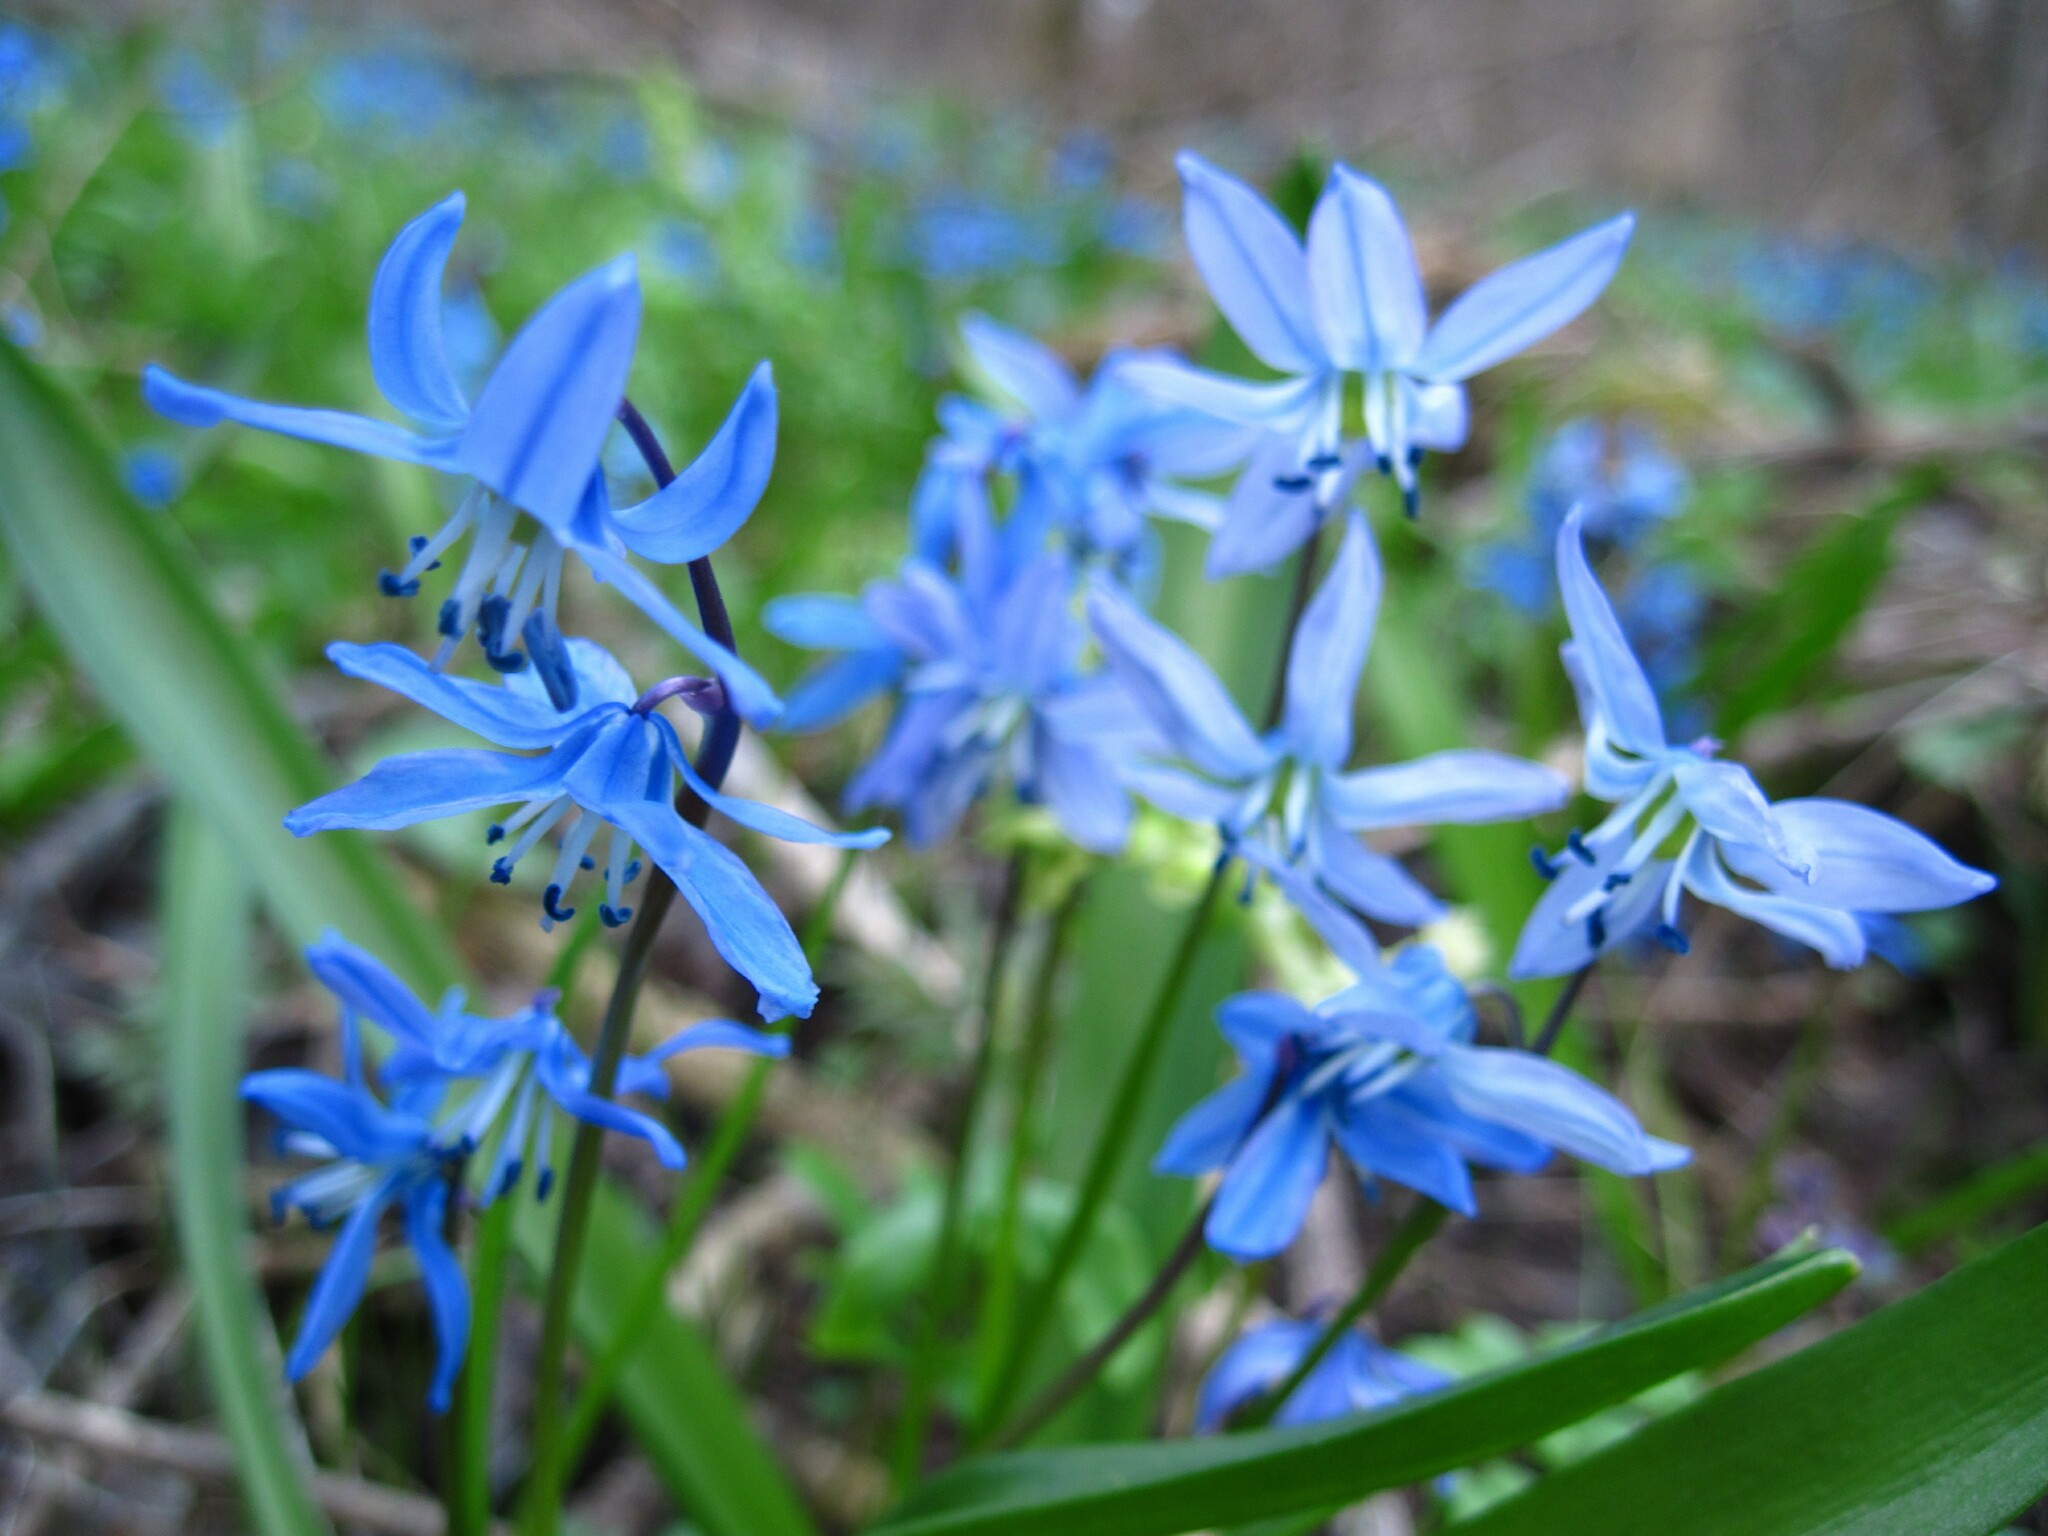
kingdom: Plantae
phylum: Tracheophyta
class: Liliopsida
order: Asparagales
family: Asparagaceae
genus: Scilla
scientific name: Scilla siberica
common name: Siberian squill
